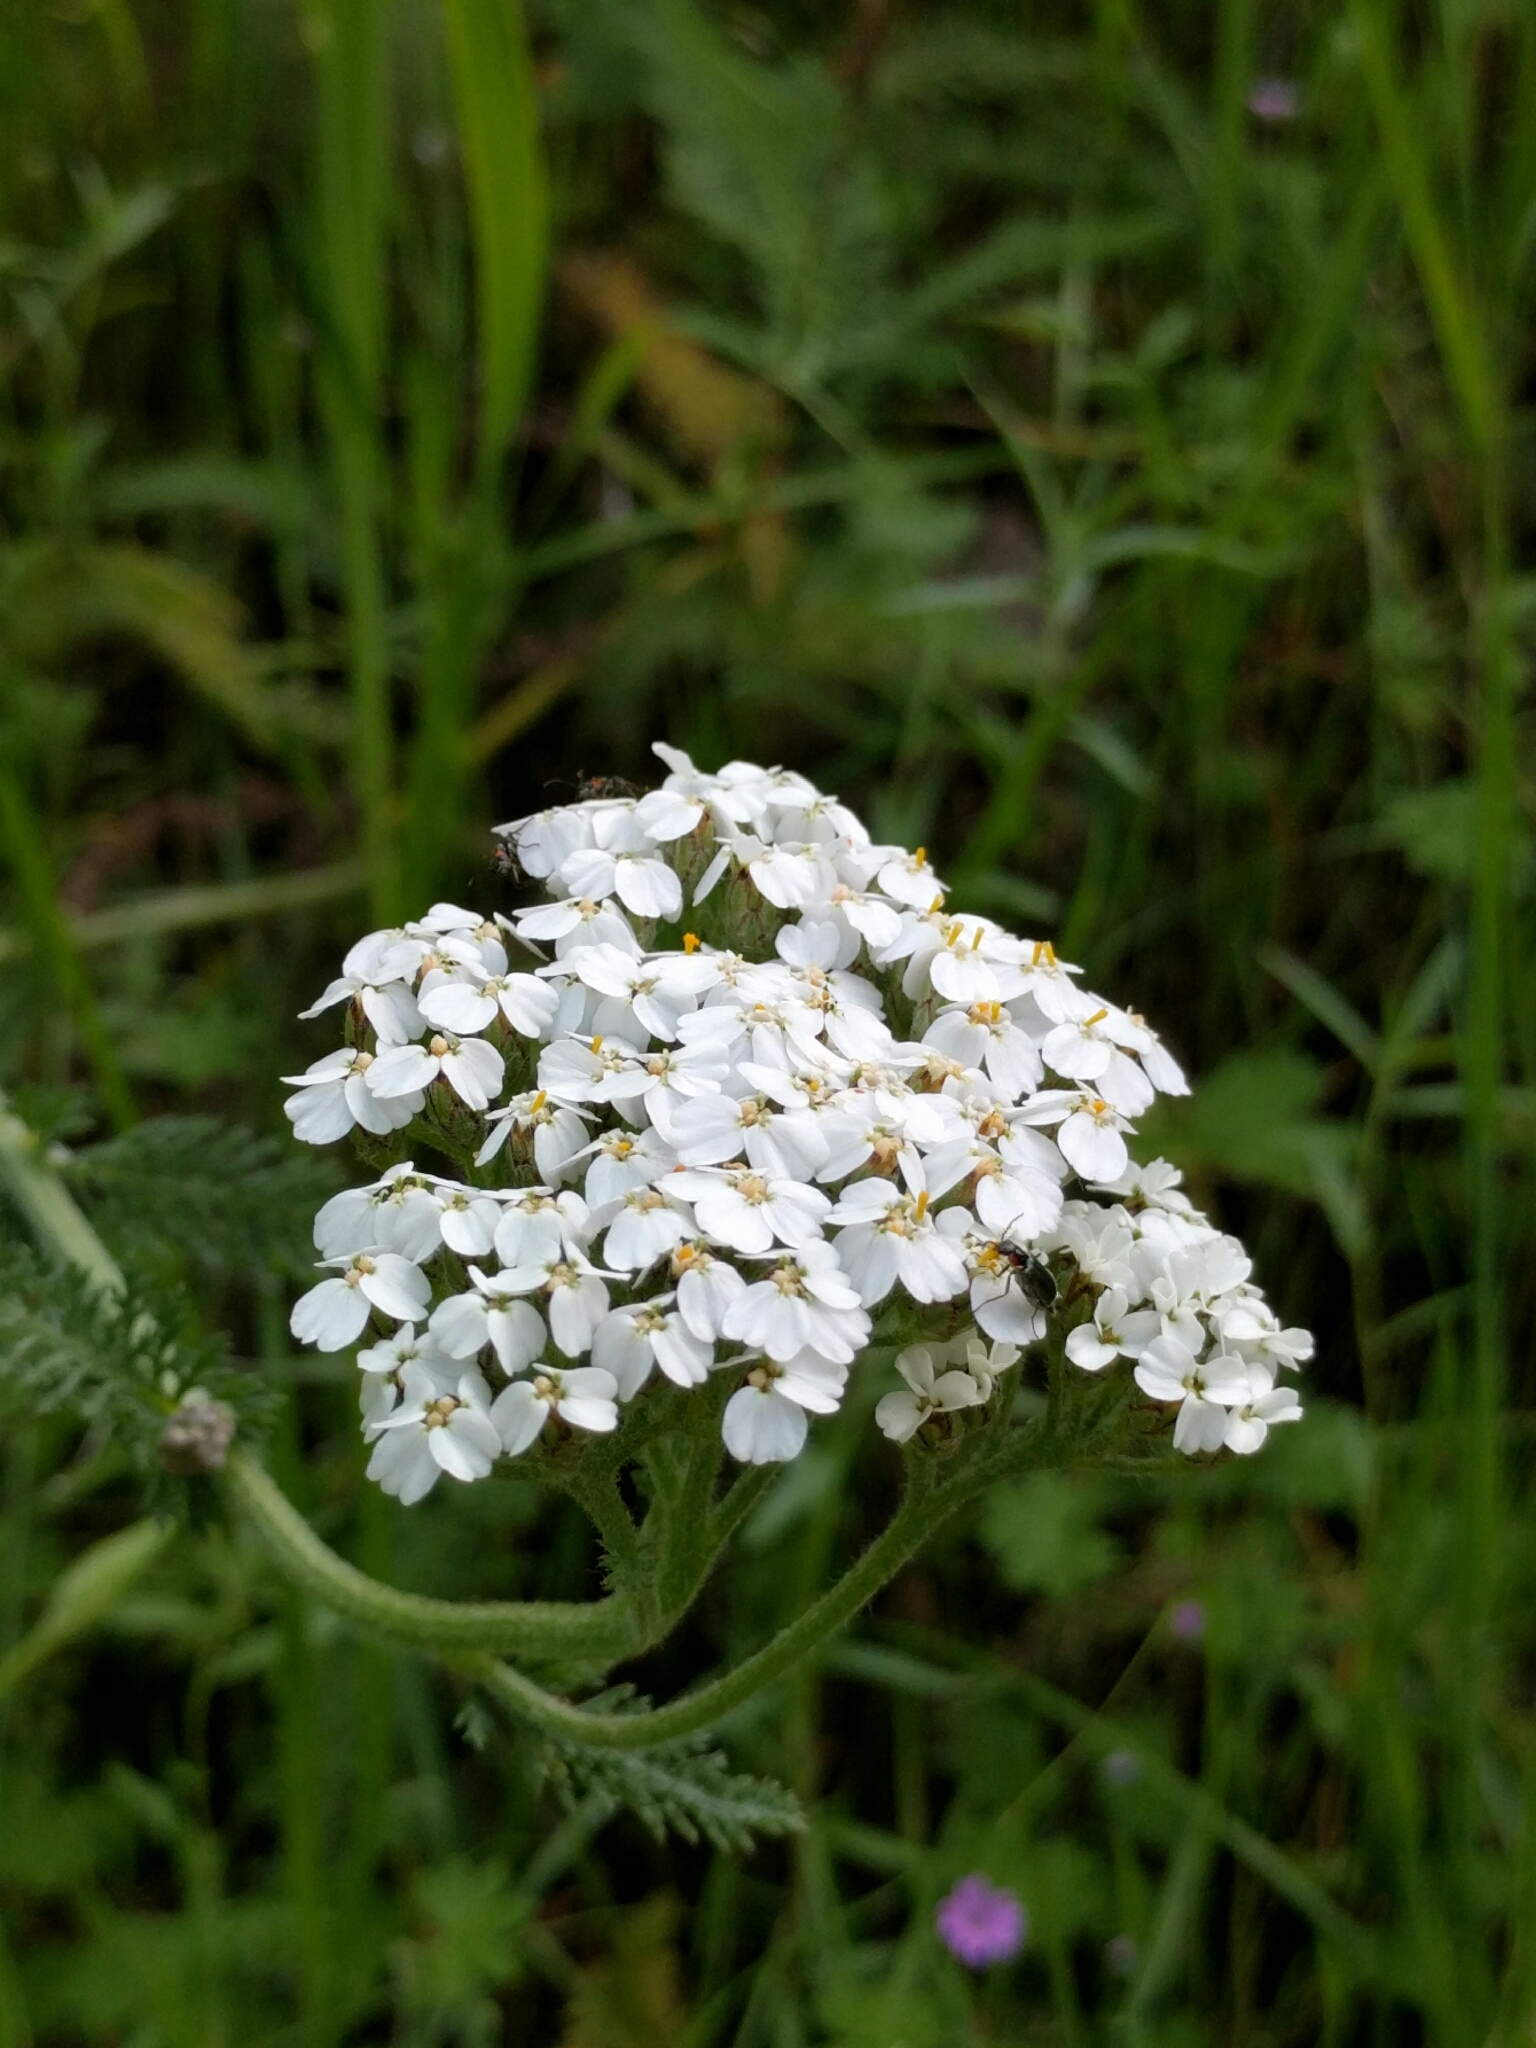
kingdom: Plantae
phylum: Tracheophyta
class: Magnoliopsida
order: Asterales
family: Asteraceae
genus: Achillea
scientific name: Achillea millefolium
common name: Yarrow
